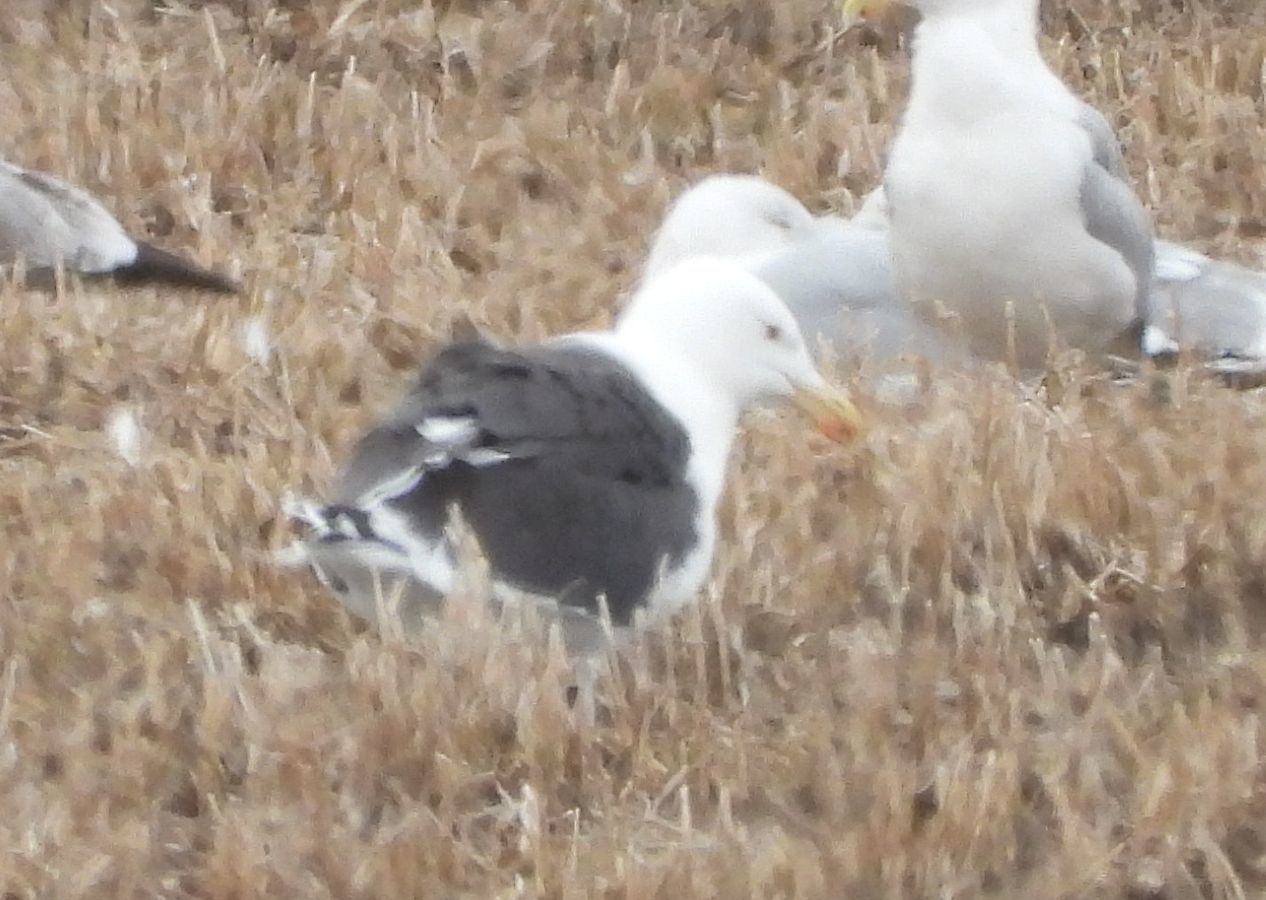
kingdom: Animalia
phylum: Chordata
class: Aves
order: Charadriiformes
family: Laridae
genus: Larus
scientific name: Larus marinus
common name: Great black-backed gull
